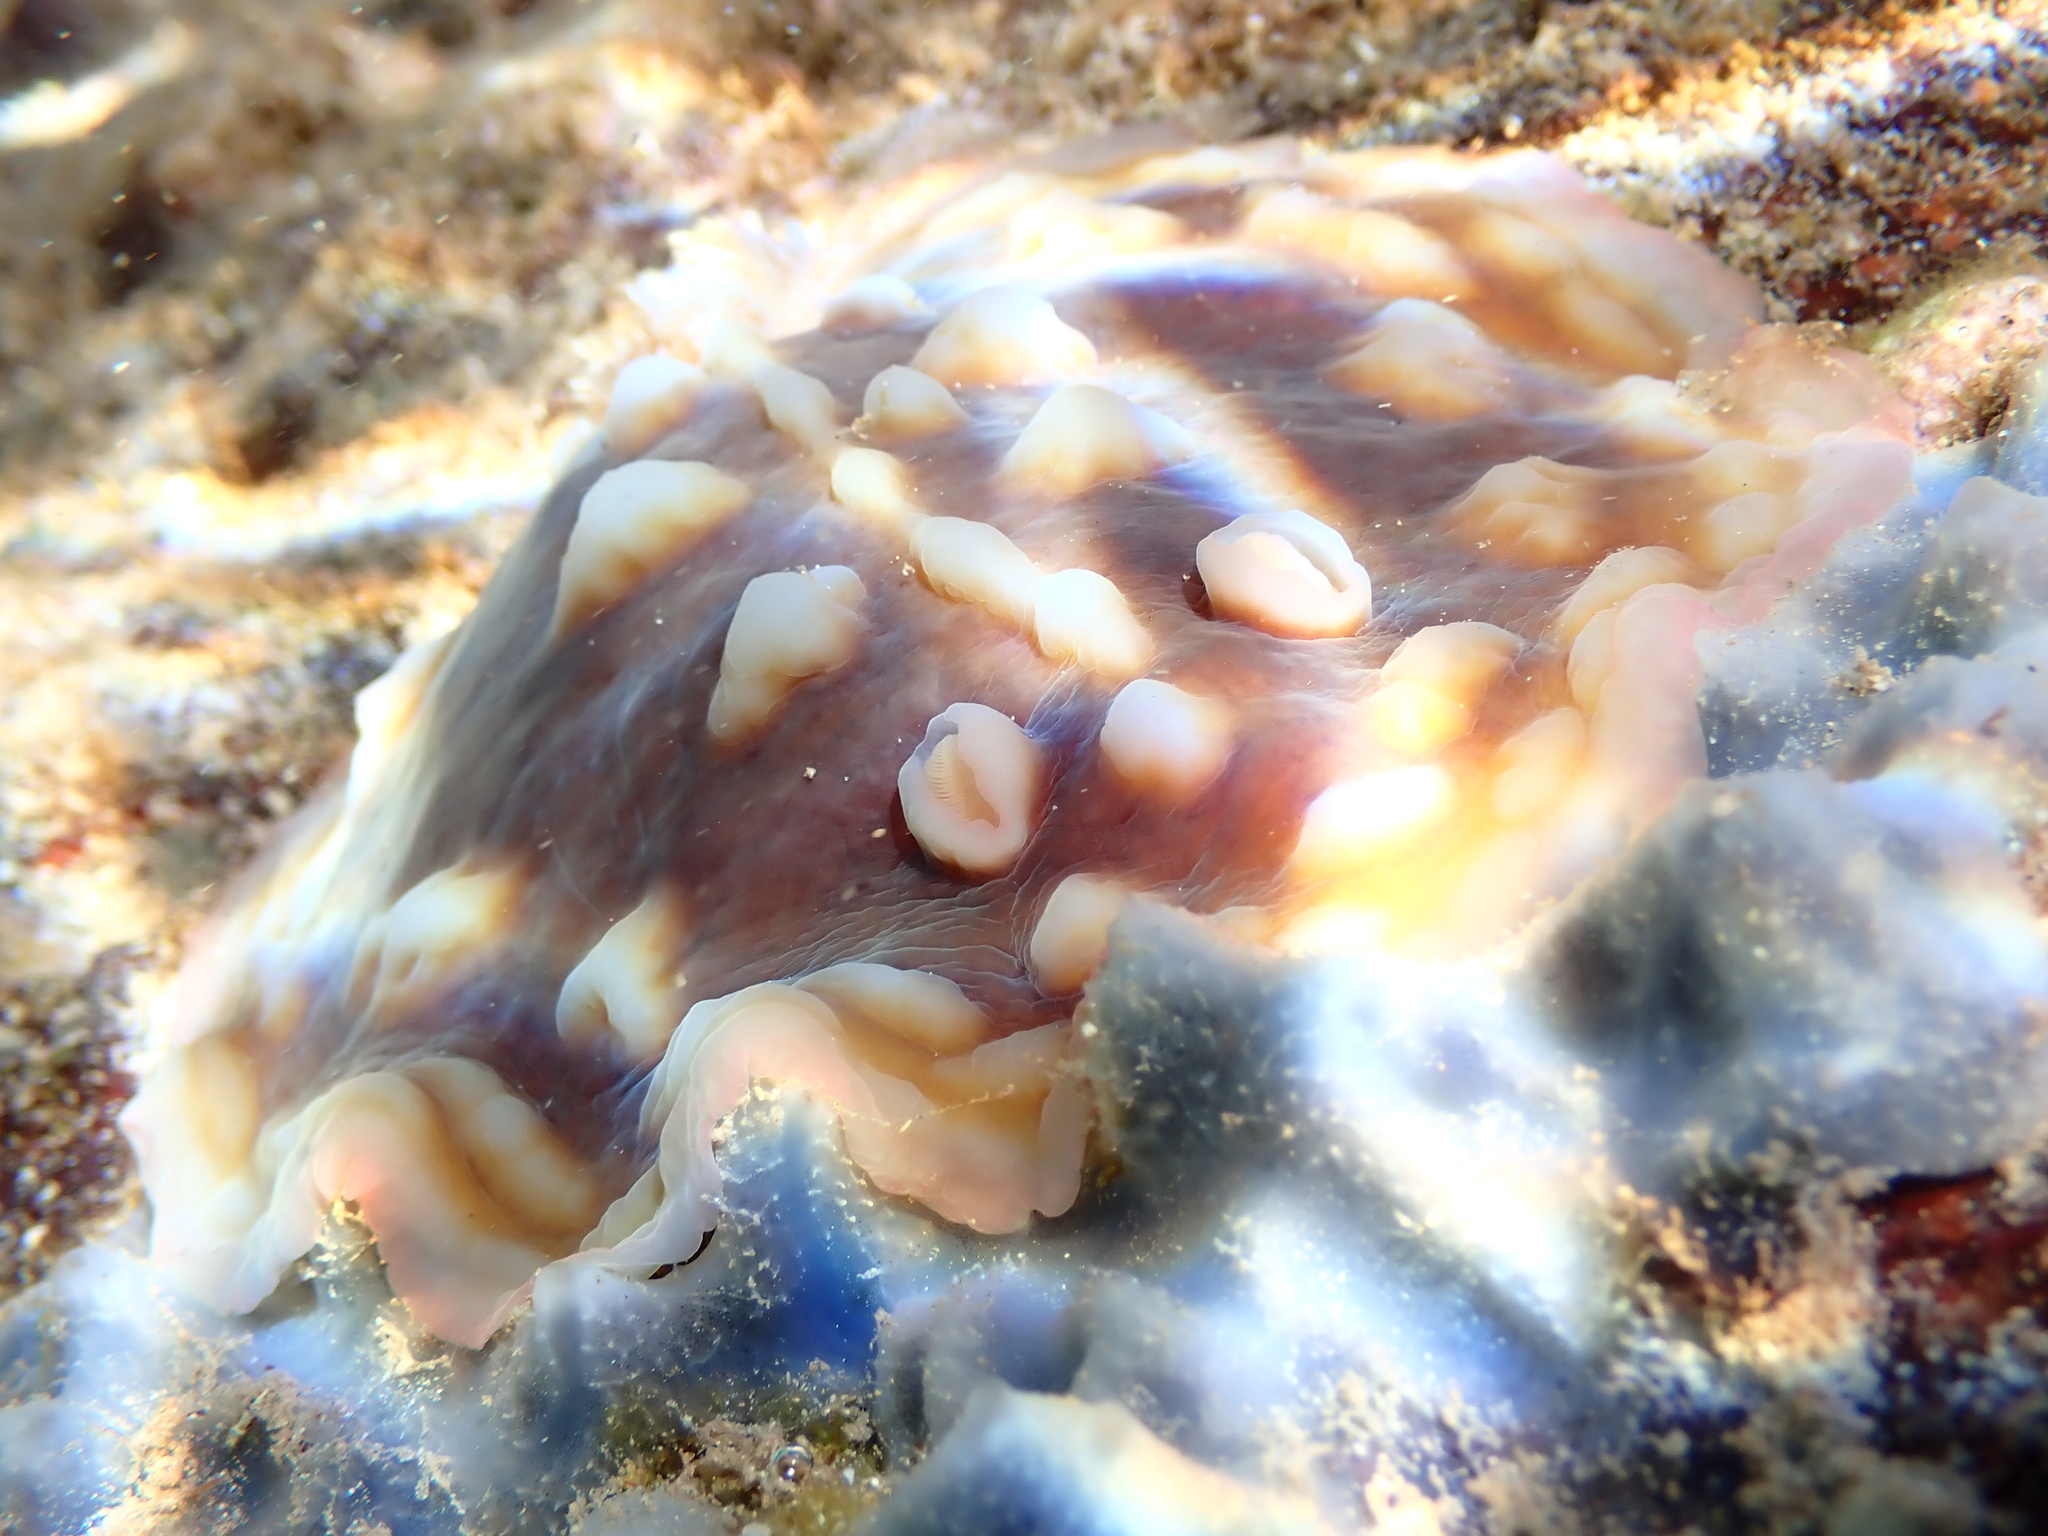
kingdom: Animalia
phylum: Mollusca
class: Gastropoda
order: Nudibranchia
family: Discodorididae
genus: Asteronotus
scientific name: Asteronotus cespitosus
